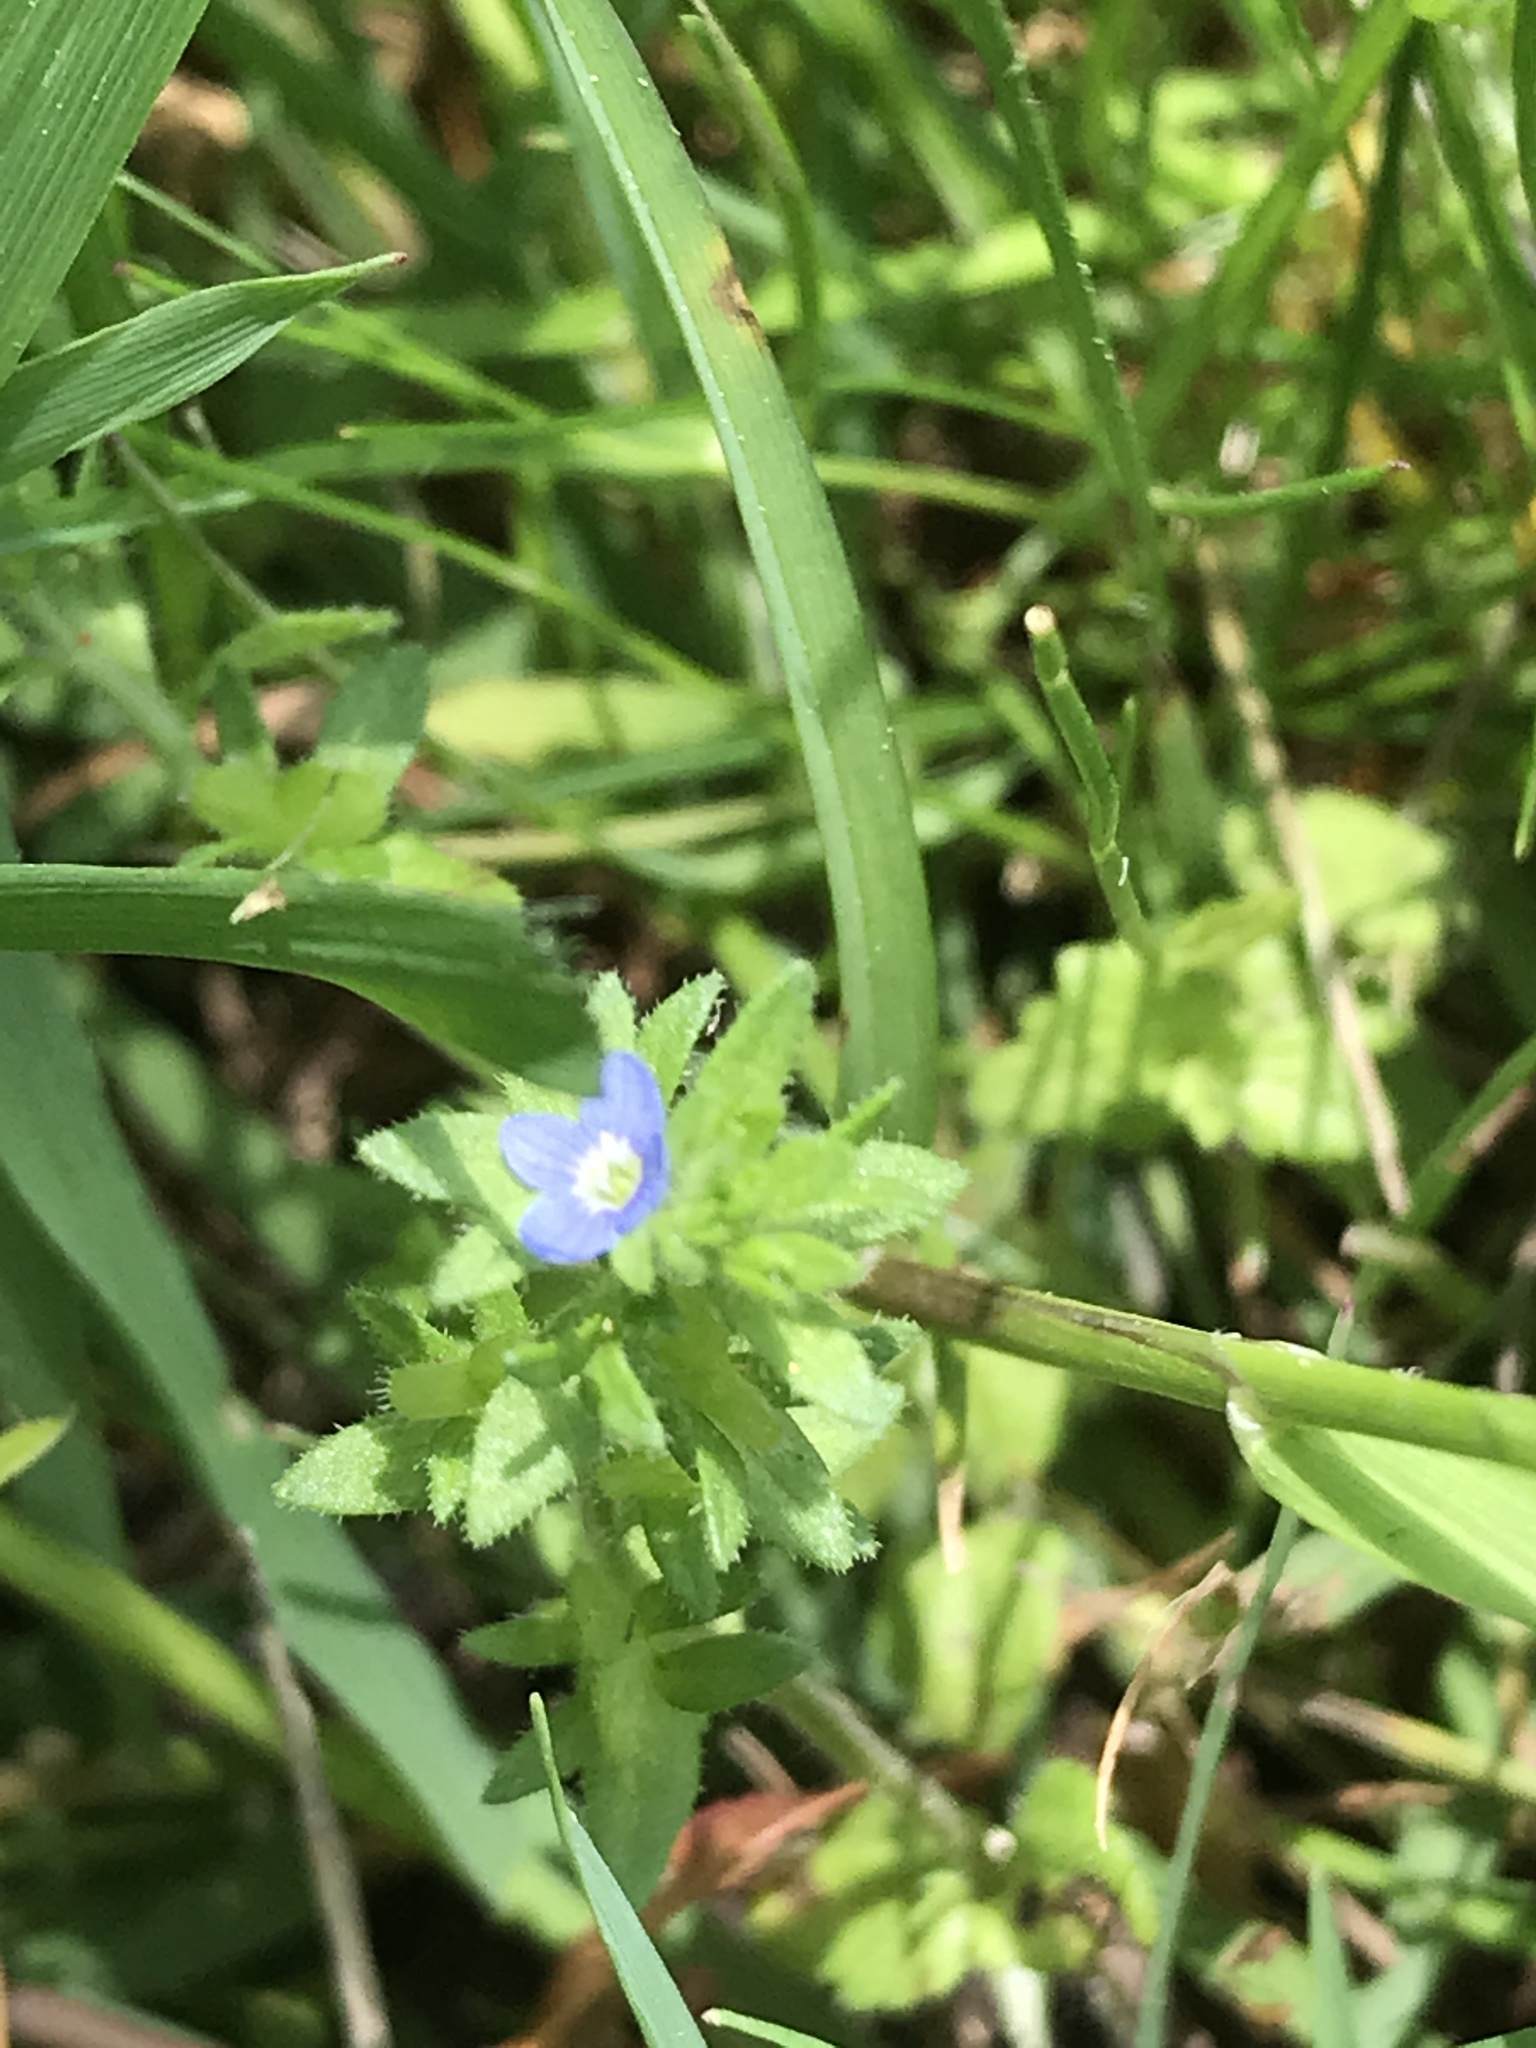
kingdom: Plantae
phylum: Tracheophyta
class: Magnoliopsida
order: Lamiales
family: Plantaginaceae
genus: Veronica
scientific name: Veronica arvensis
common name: Corn speedwell
